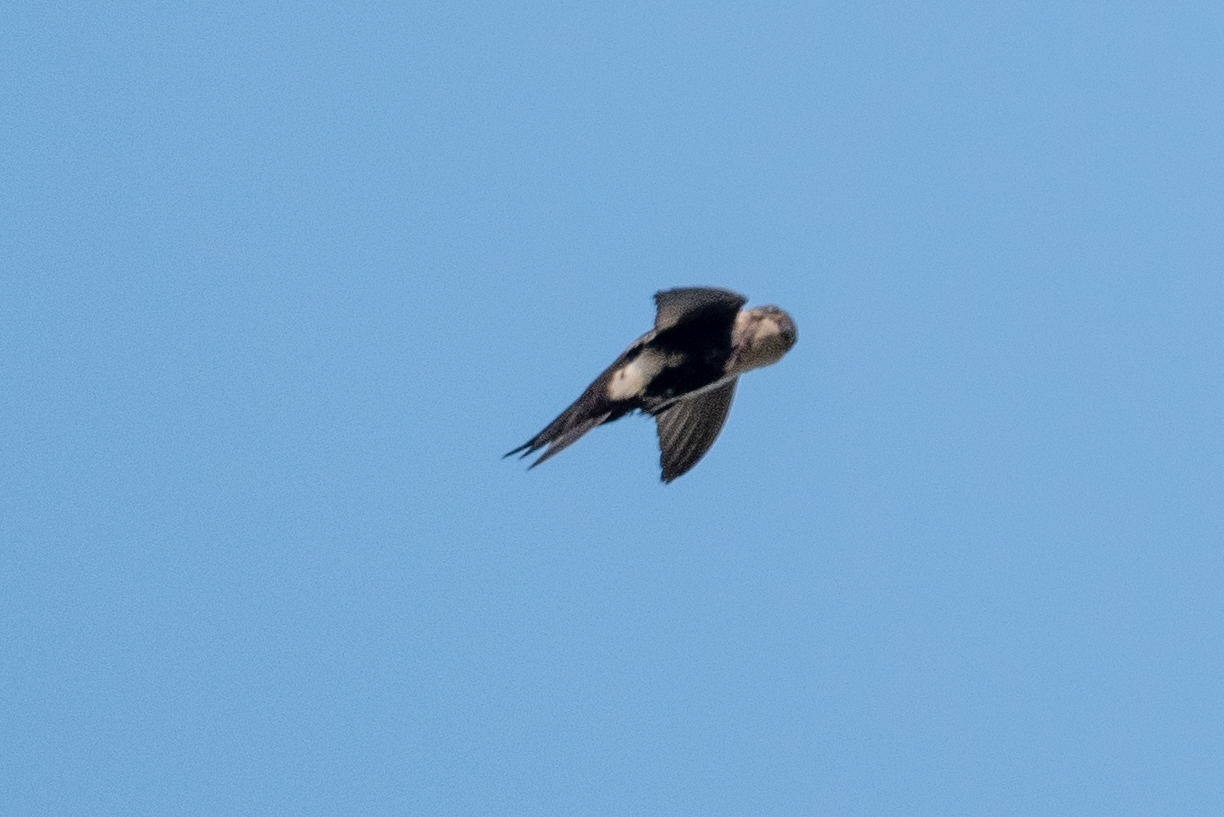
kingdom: Animalia
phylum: Chordata
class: Aves
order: Apodiformes
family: Apodidae
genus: Aeronautes
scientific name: Aeronautes saxatalis
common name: White-throated swift
